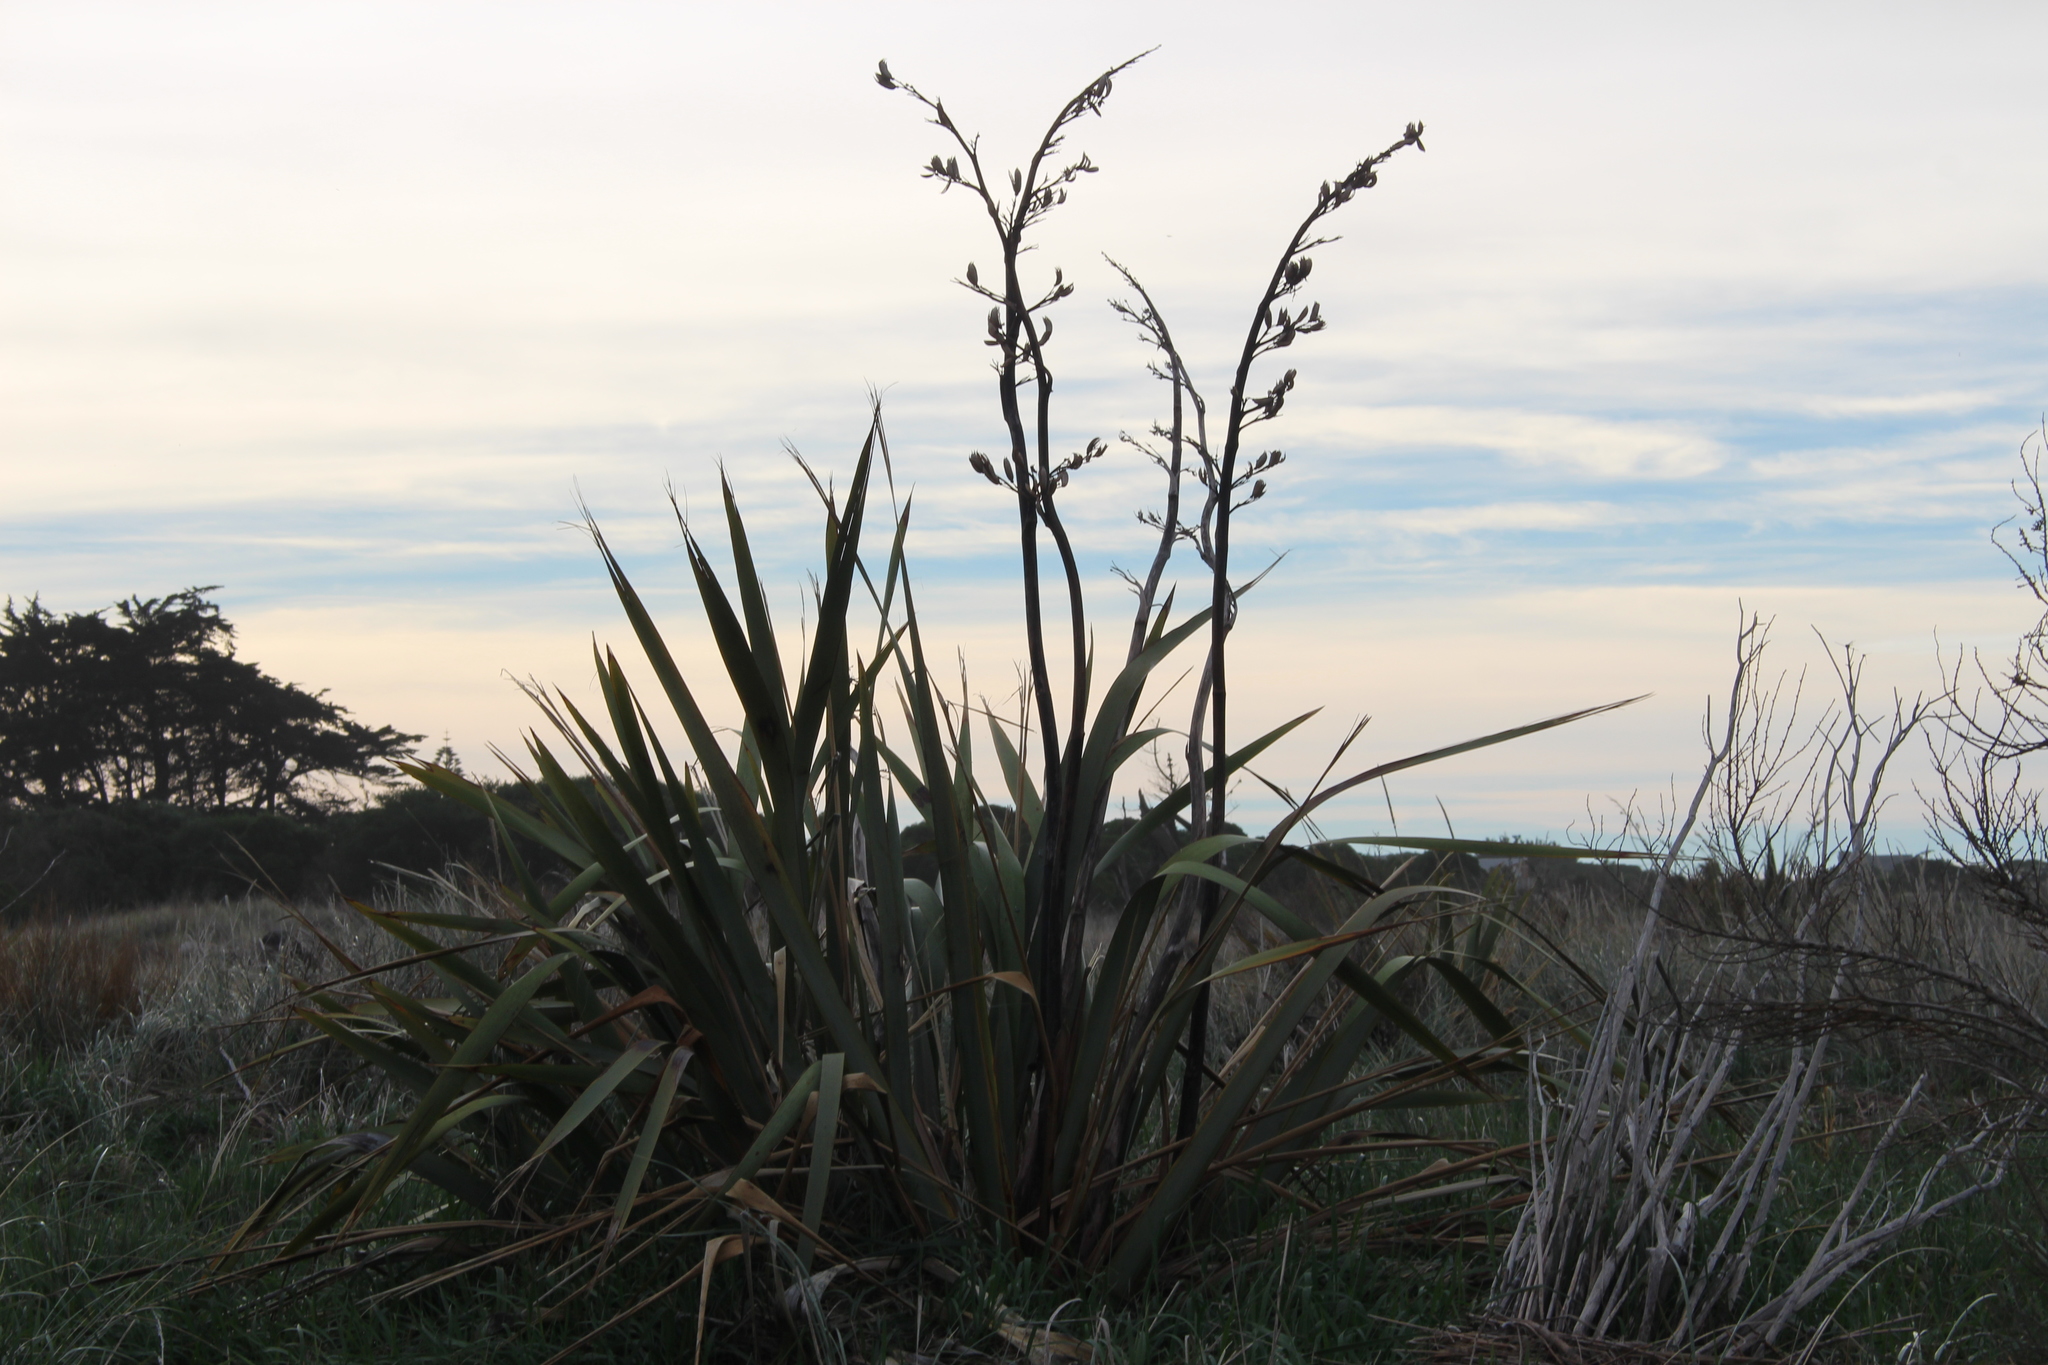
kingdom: Plantae
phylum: Tracheophyta
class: Liliopsida
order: Asparagales
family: Asphodelaceae
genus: Phormium
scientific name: Phormium tenax
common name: New zealand flax
